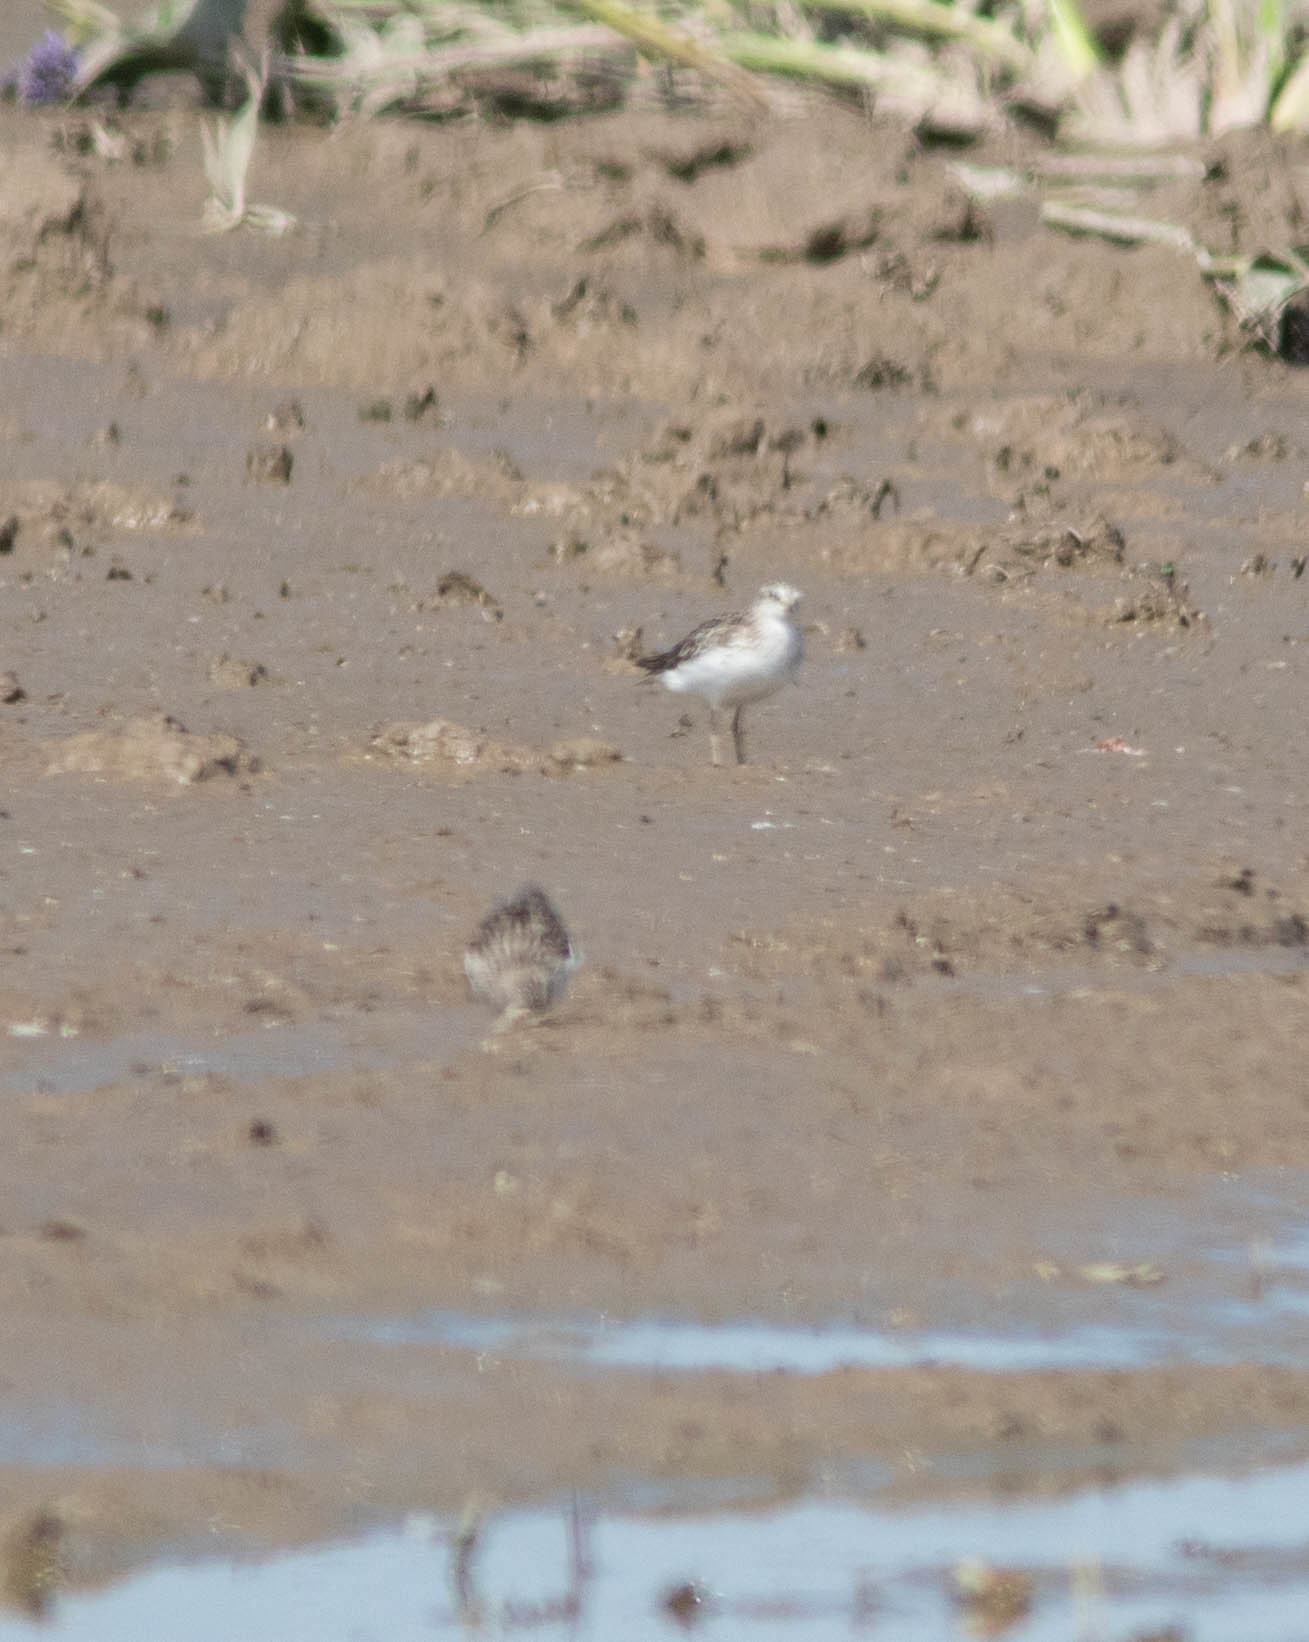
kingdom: Animalia
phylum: Chordata
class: Aves
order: Charadriiformes
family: Scolopacidae
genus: Calidris
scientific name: Calidris minutilla
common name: Least sandpiper
